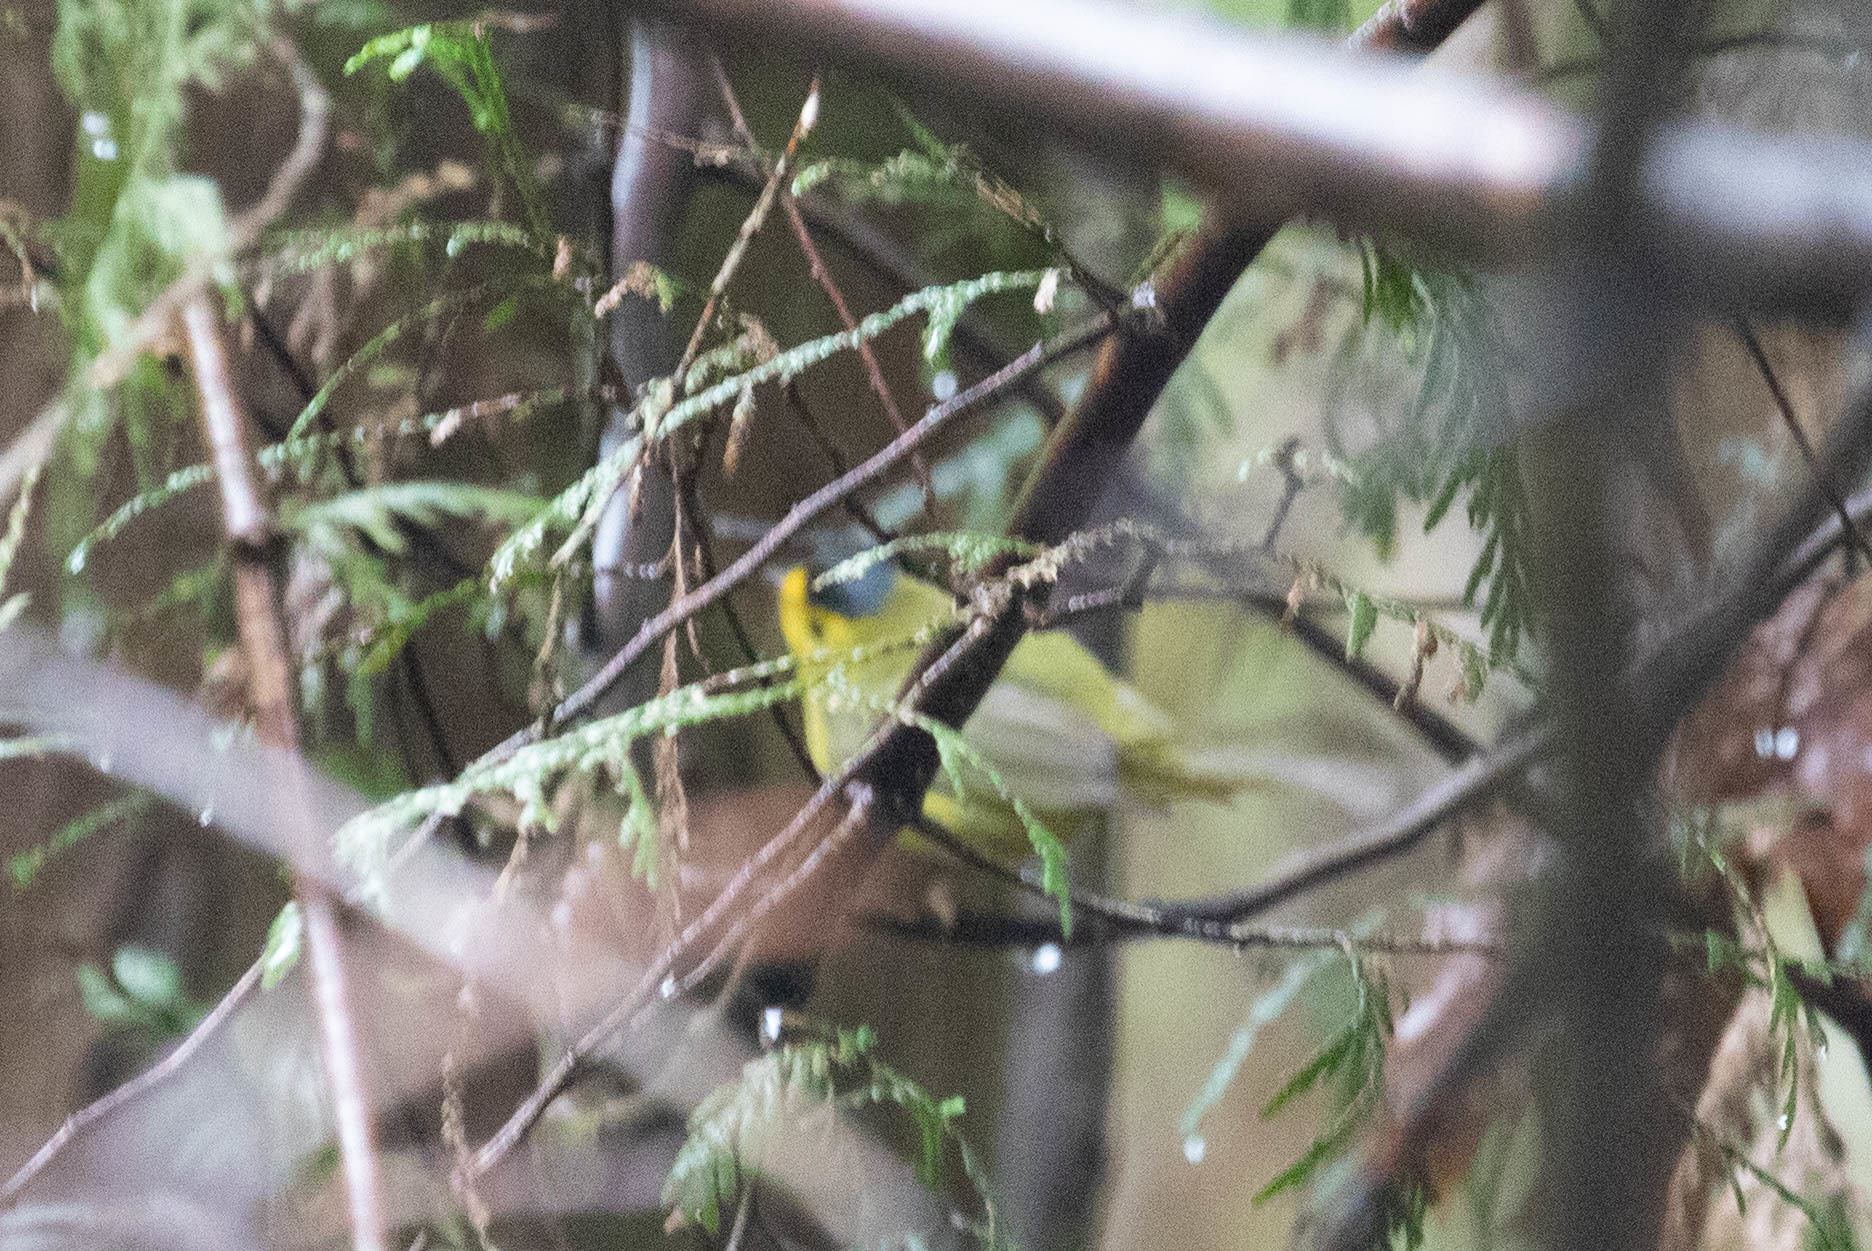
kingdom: Animalia
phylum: Chordata
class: Aves
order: Passeriformes
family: Parulidae
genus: Cardellina
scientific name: Cardellina pusilla
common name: Wilson's warbler
